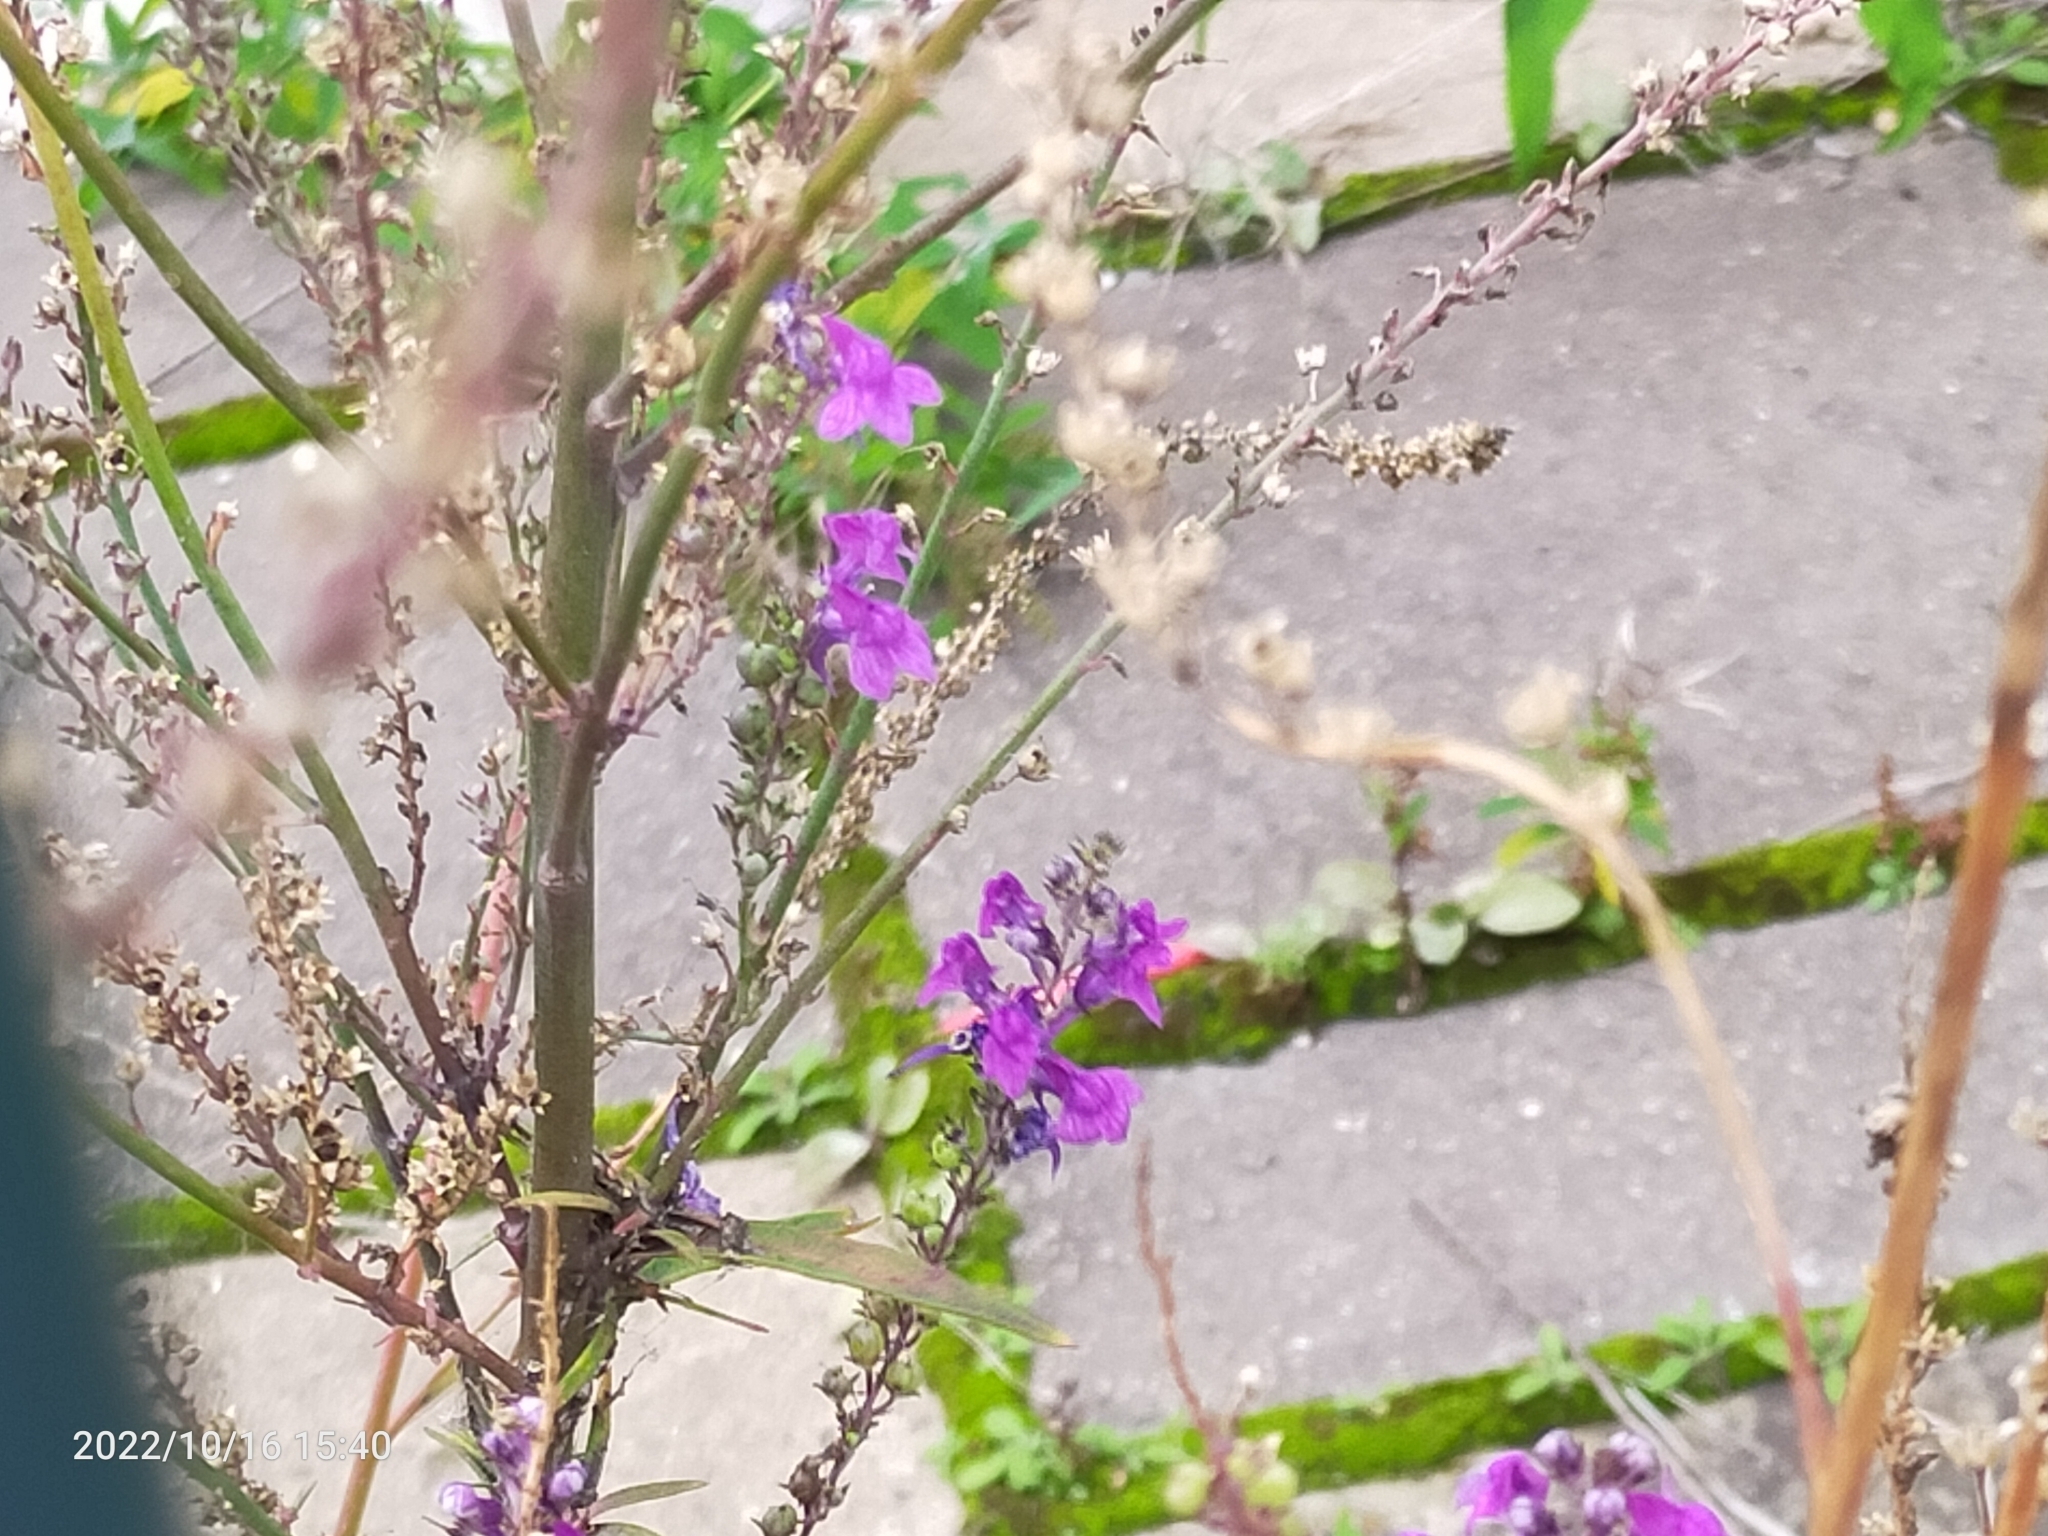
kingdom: Plantae
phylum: Tracheophyta
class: Magnoliopsida
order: Lamiales
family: Plantaginaceae
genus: Linaria
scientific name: Linaria purpurea
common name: Purple toadflax
